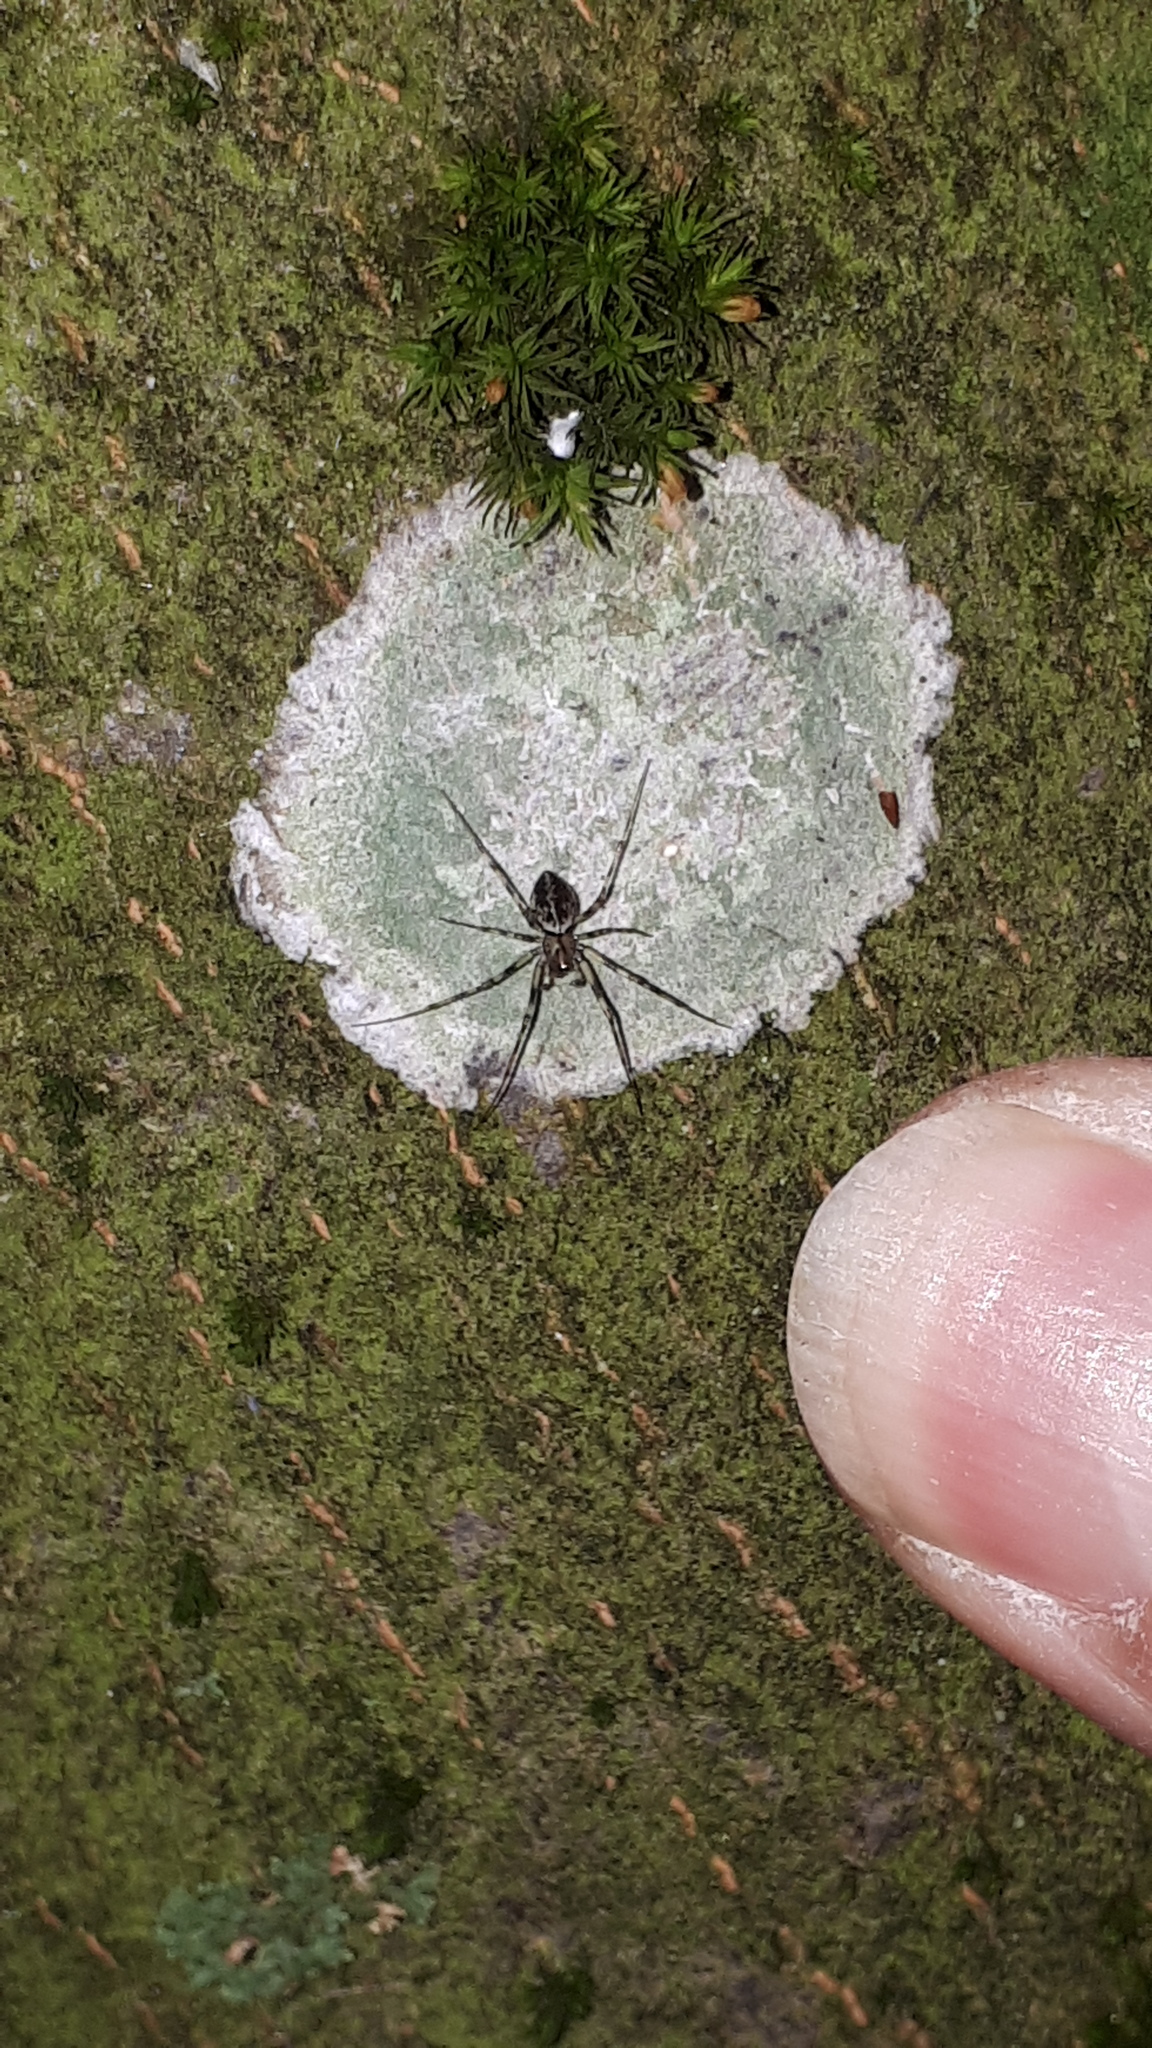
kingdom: Animalia
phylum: Arthropoda
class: Arachnida
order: Araneae
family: Linyphiidae
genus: Drapetisca
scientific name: Drapetisca socialis
